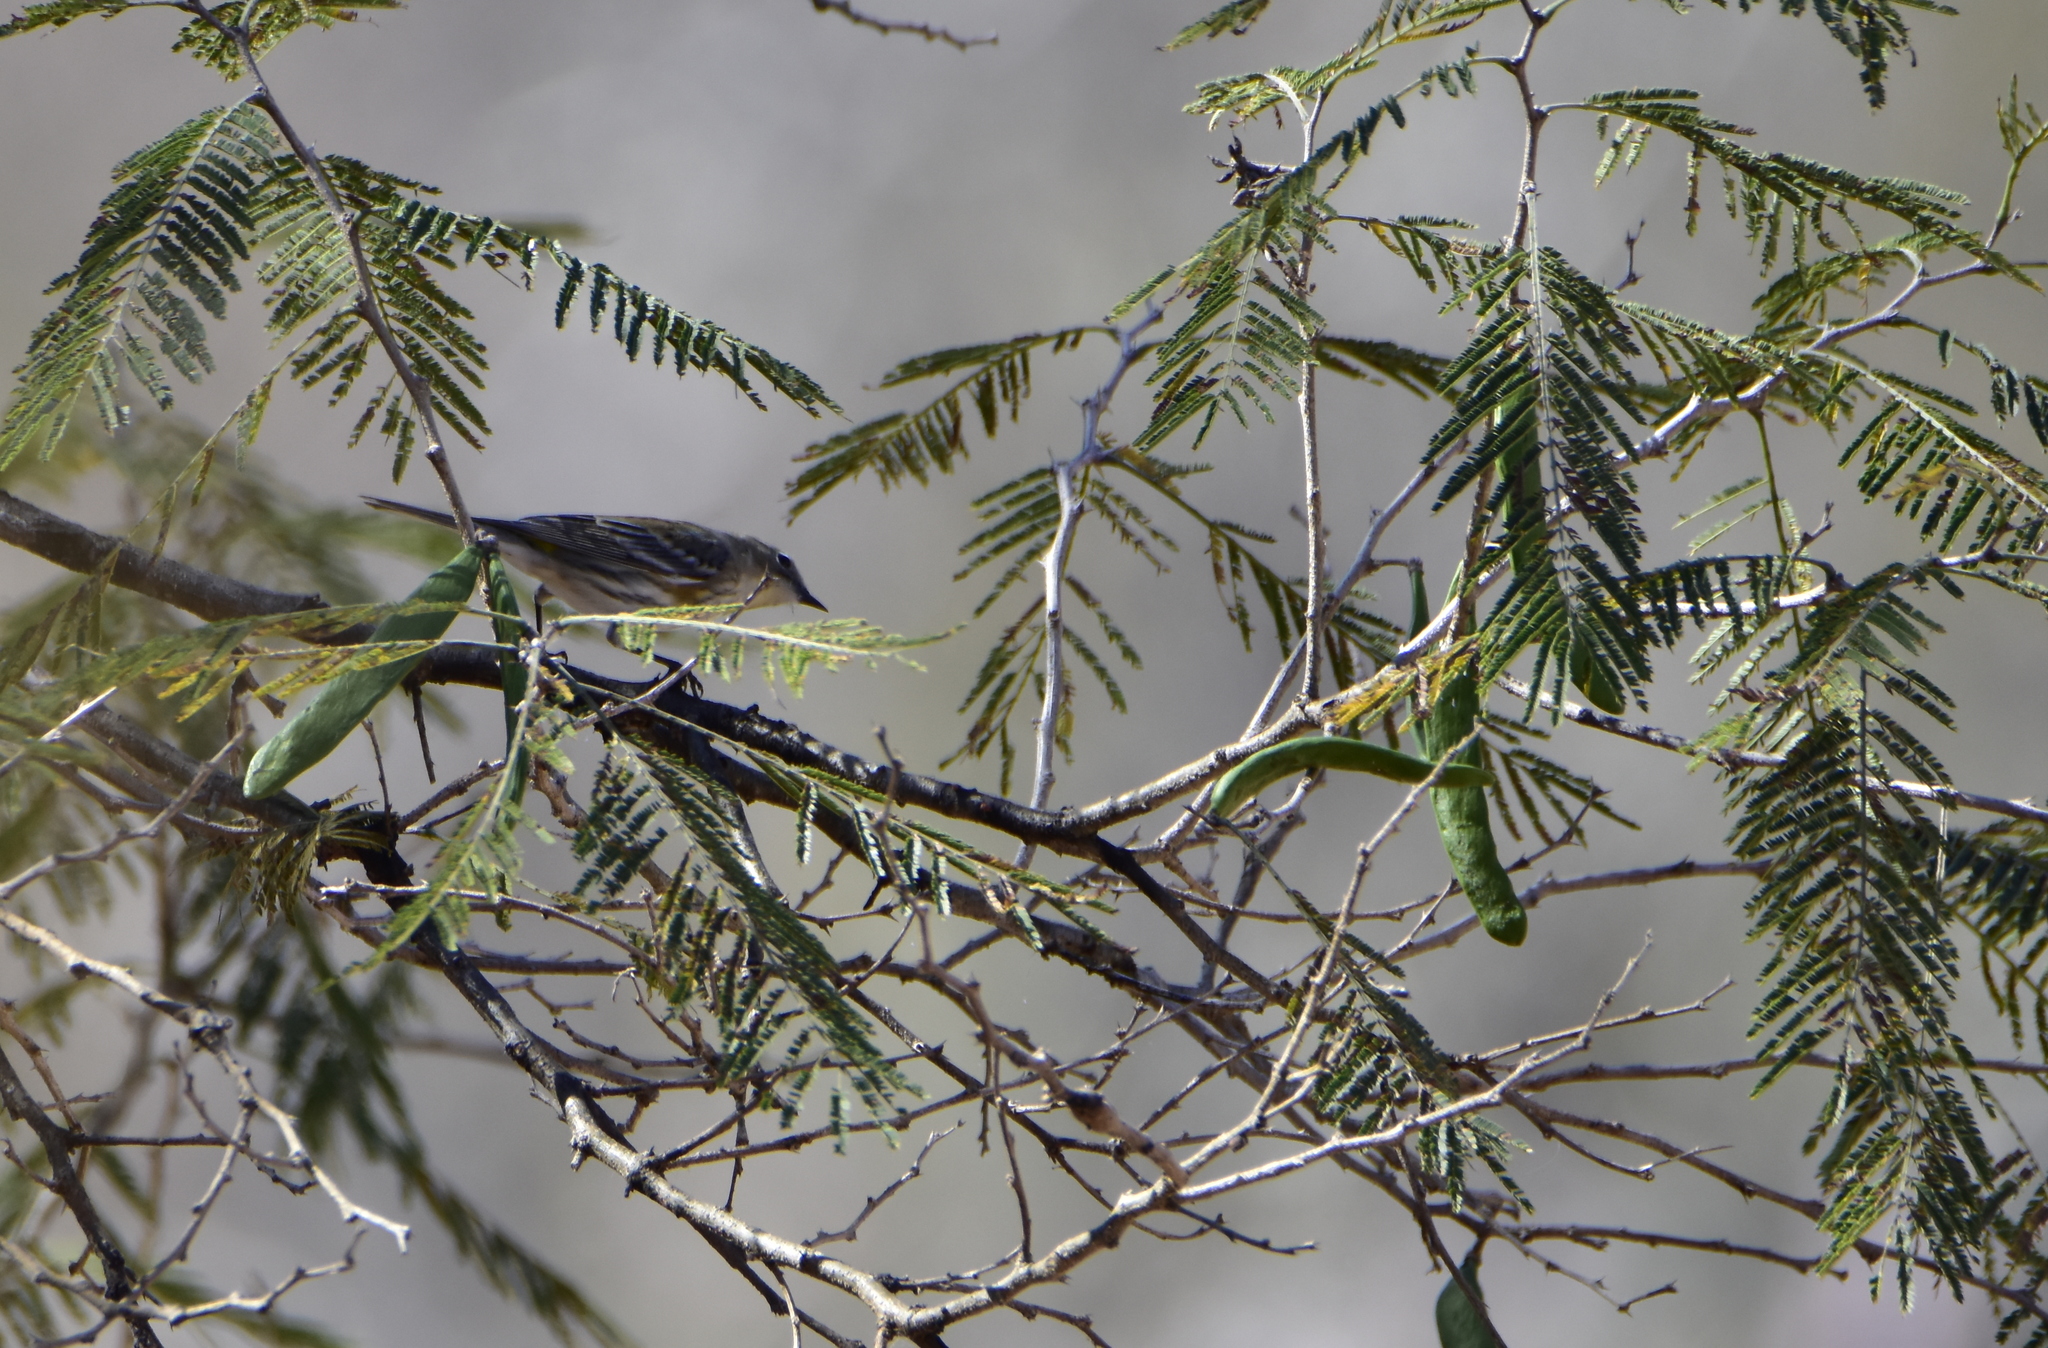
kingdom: Animalia
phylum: Chordata
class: Aves
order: Passeriformes
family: Parulidae
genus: Setophaga
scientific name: Setophaga coronata
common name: Myrtle warbler
